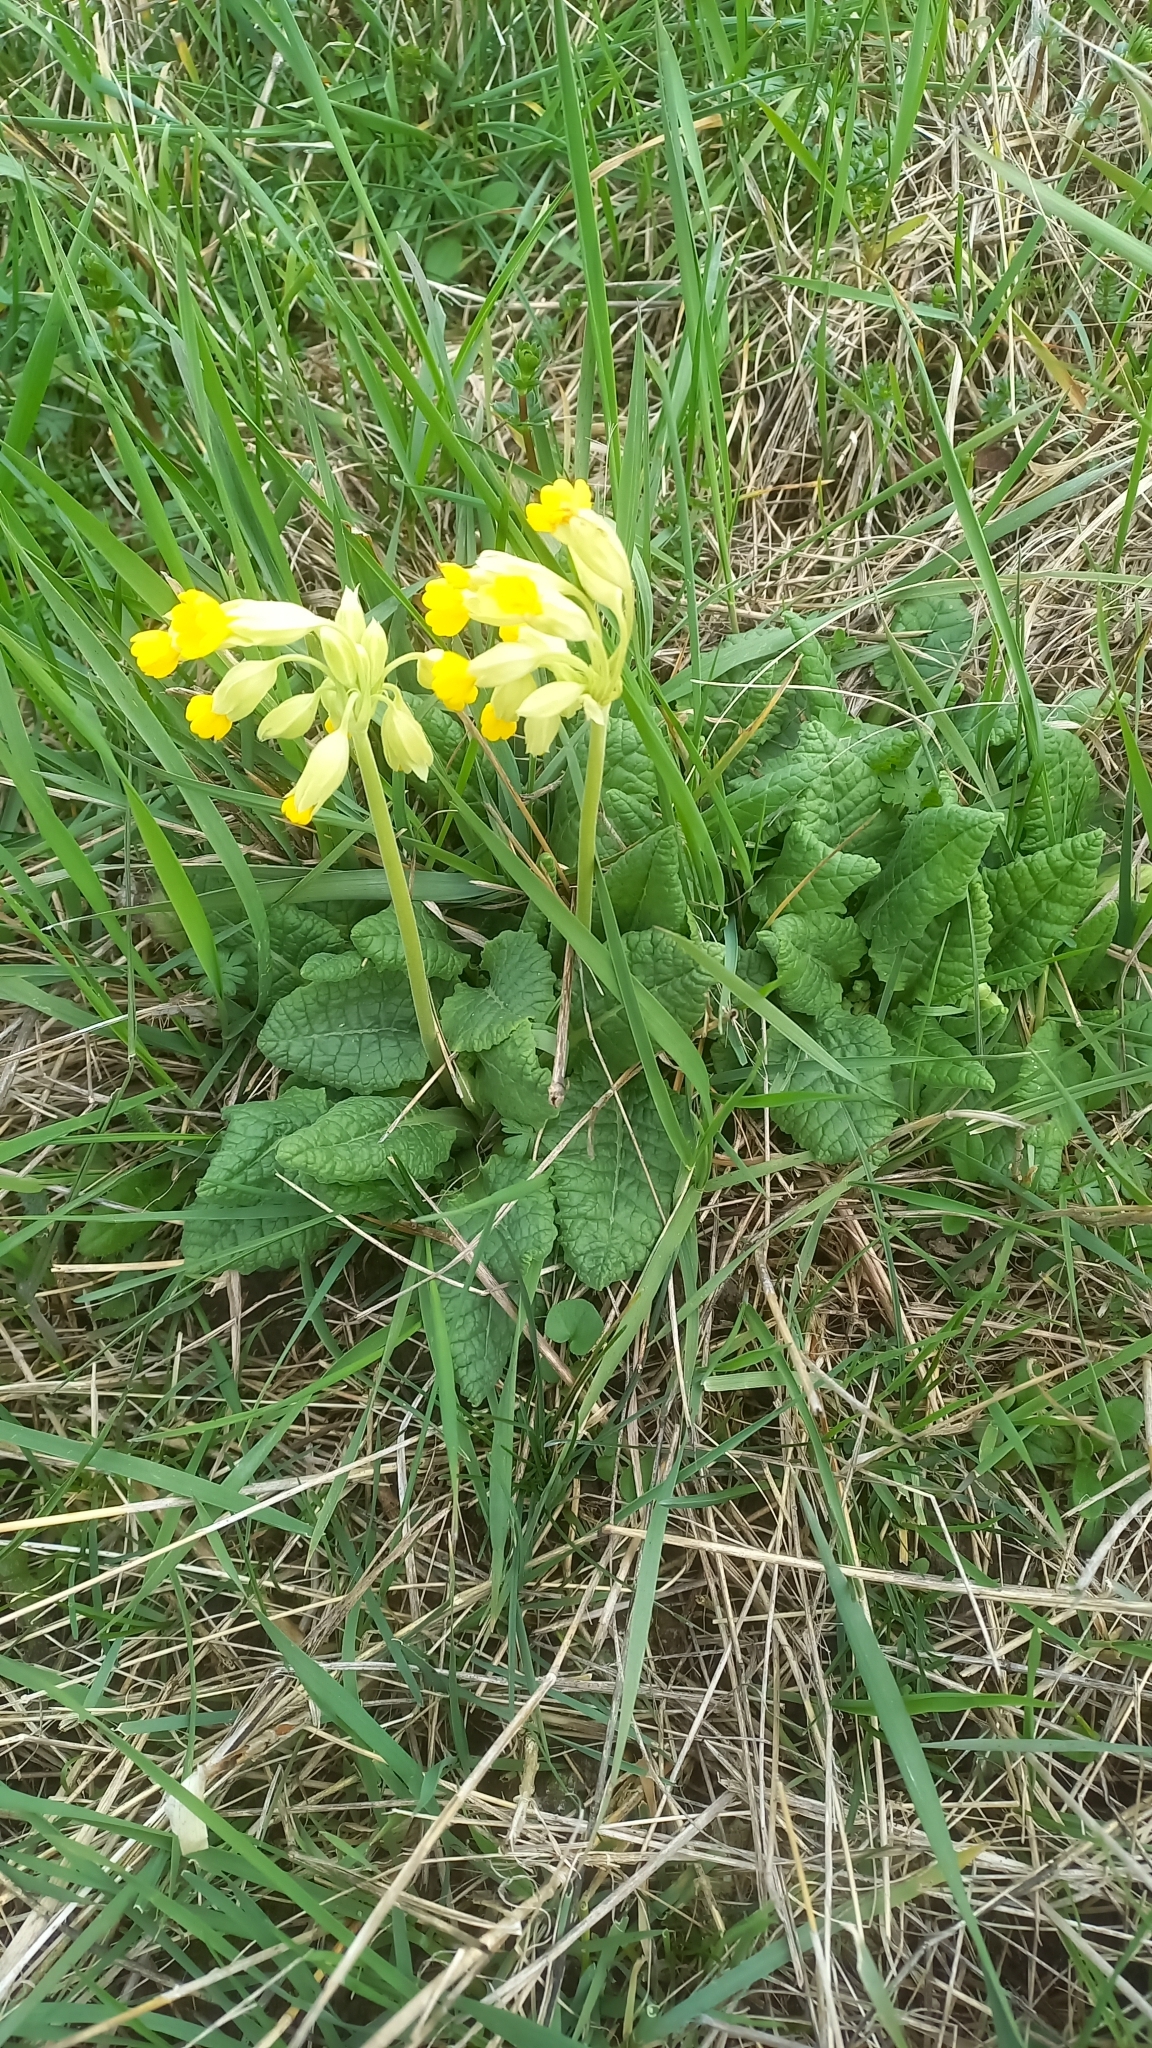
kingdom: Plantae
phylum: Tracheophyta
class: Magnoliopsida
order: Ericales
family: Primulaceae
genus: Primula
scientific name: Primula veris
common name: Cowslip
